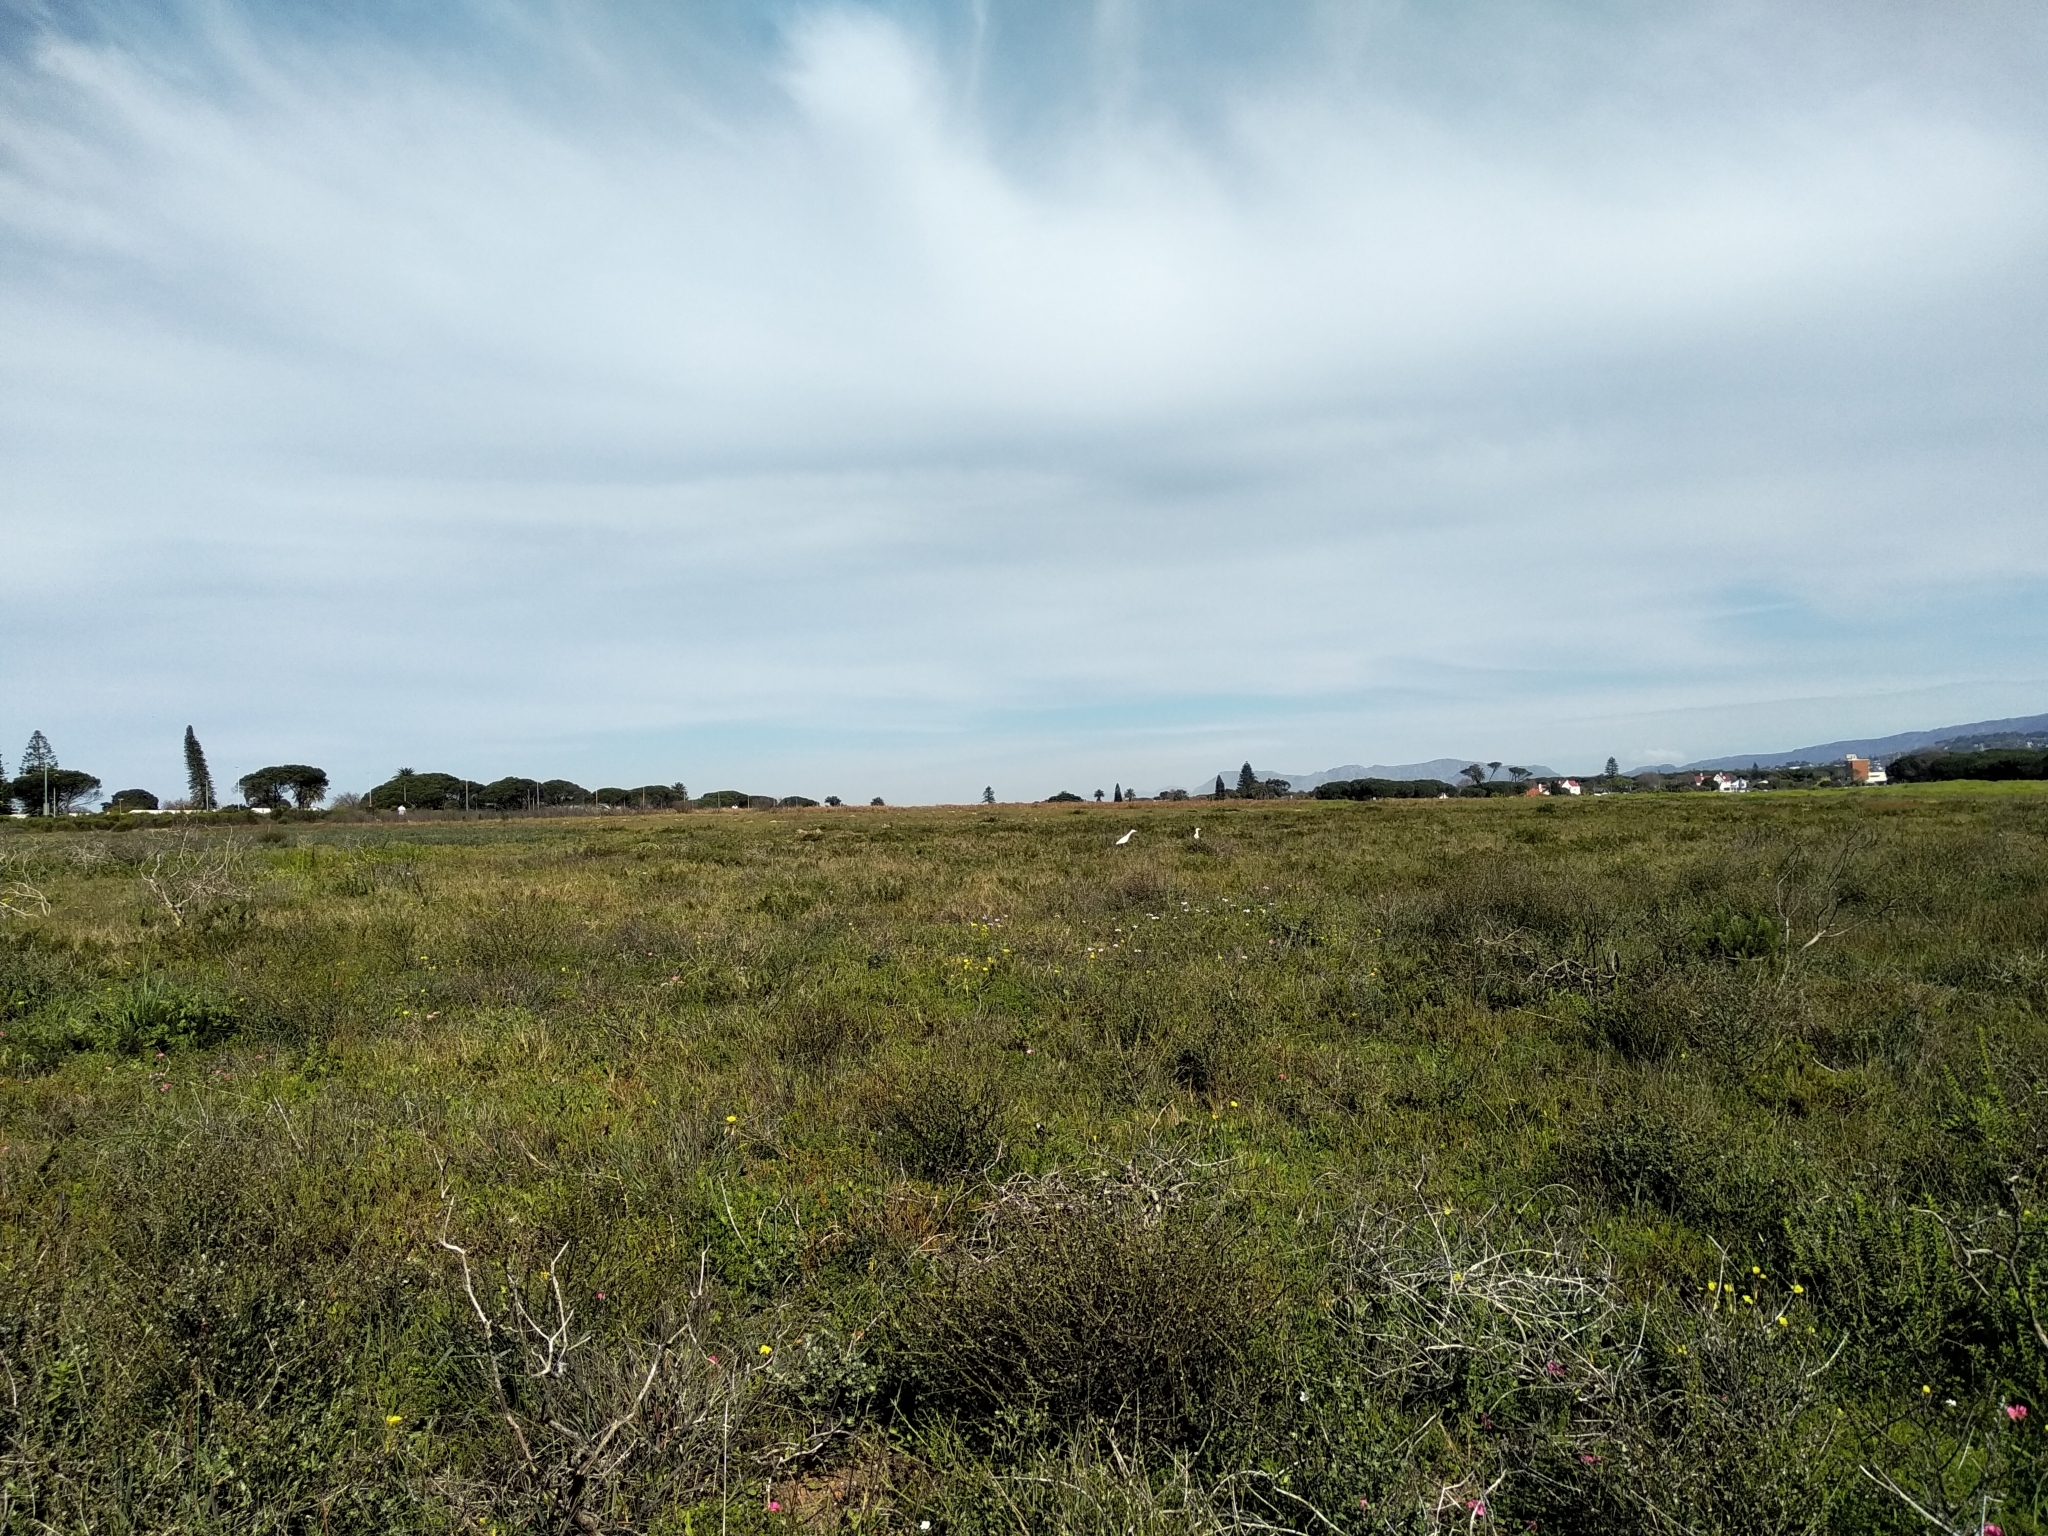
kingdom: Animalia
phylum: Chordata
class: Aves
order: Pelecaniformes
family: Ardeidae
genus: Bubulcus
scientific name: Bubulcus ibis
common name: Cattle egret
